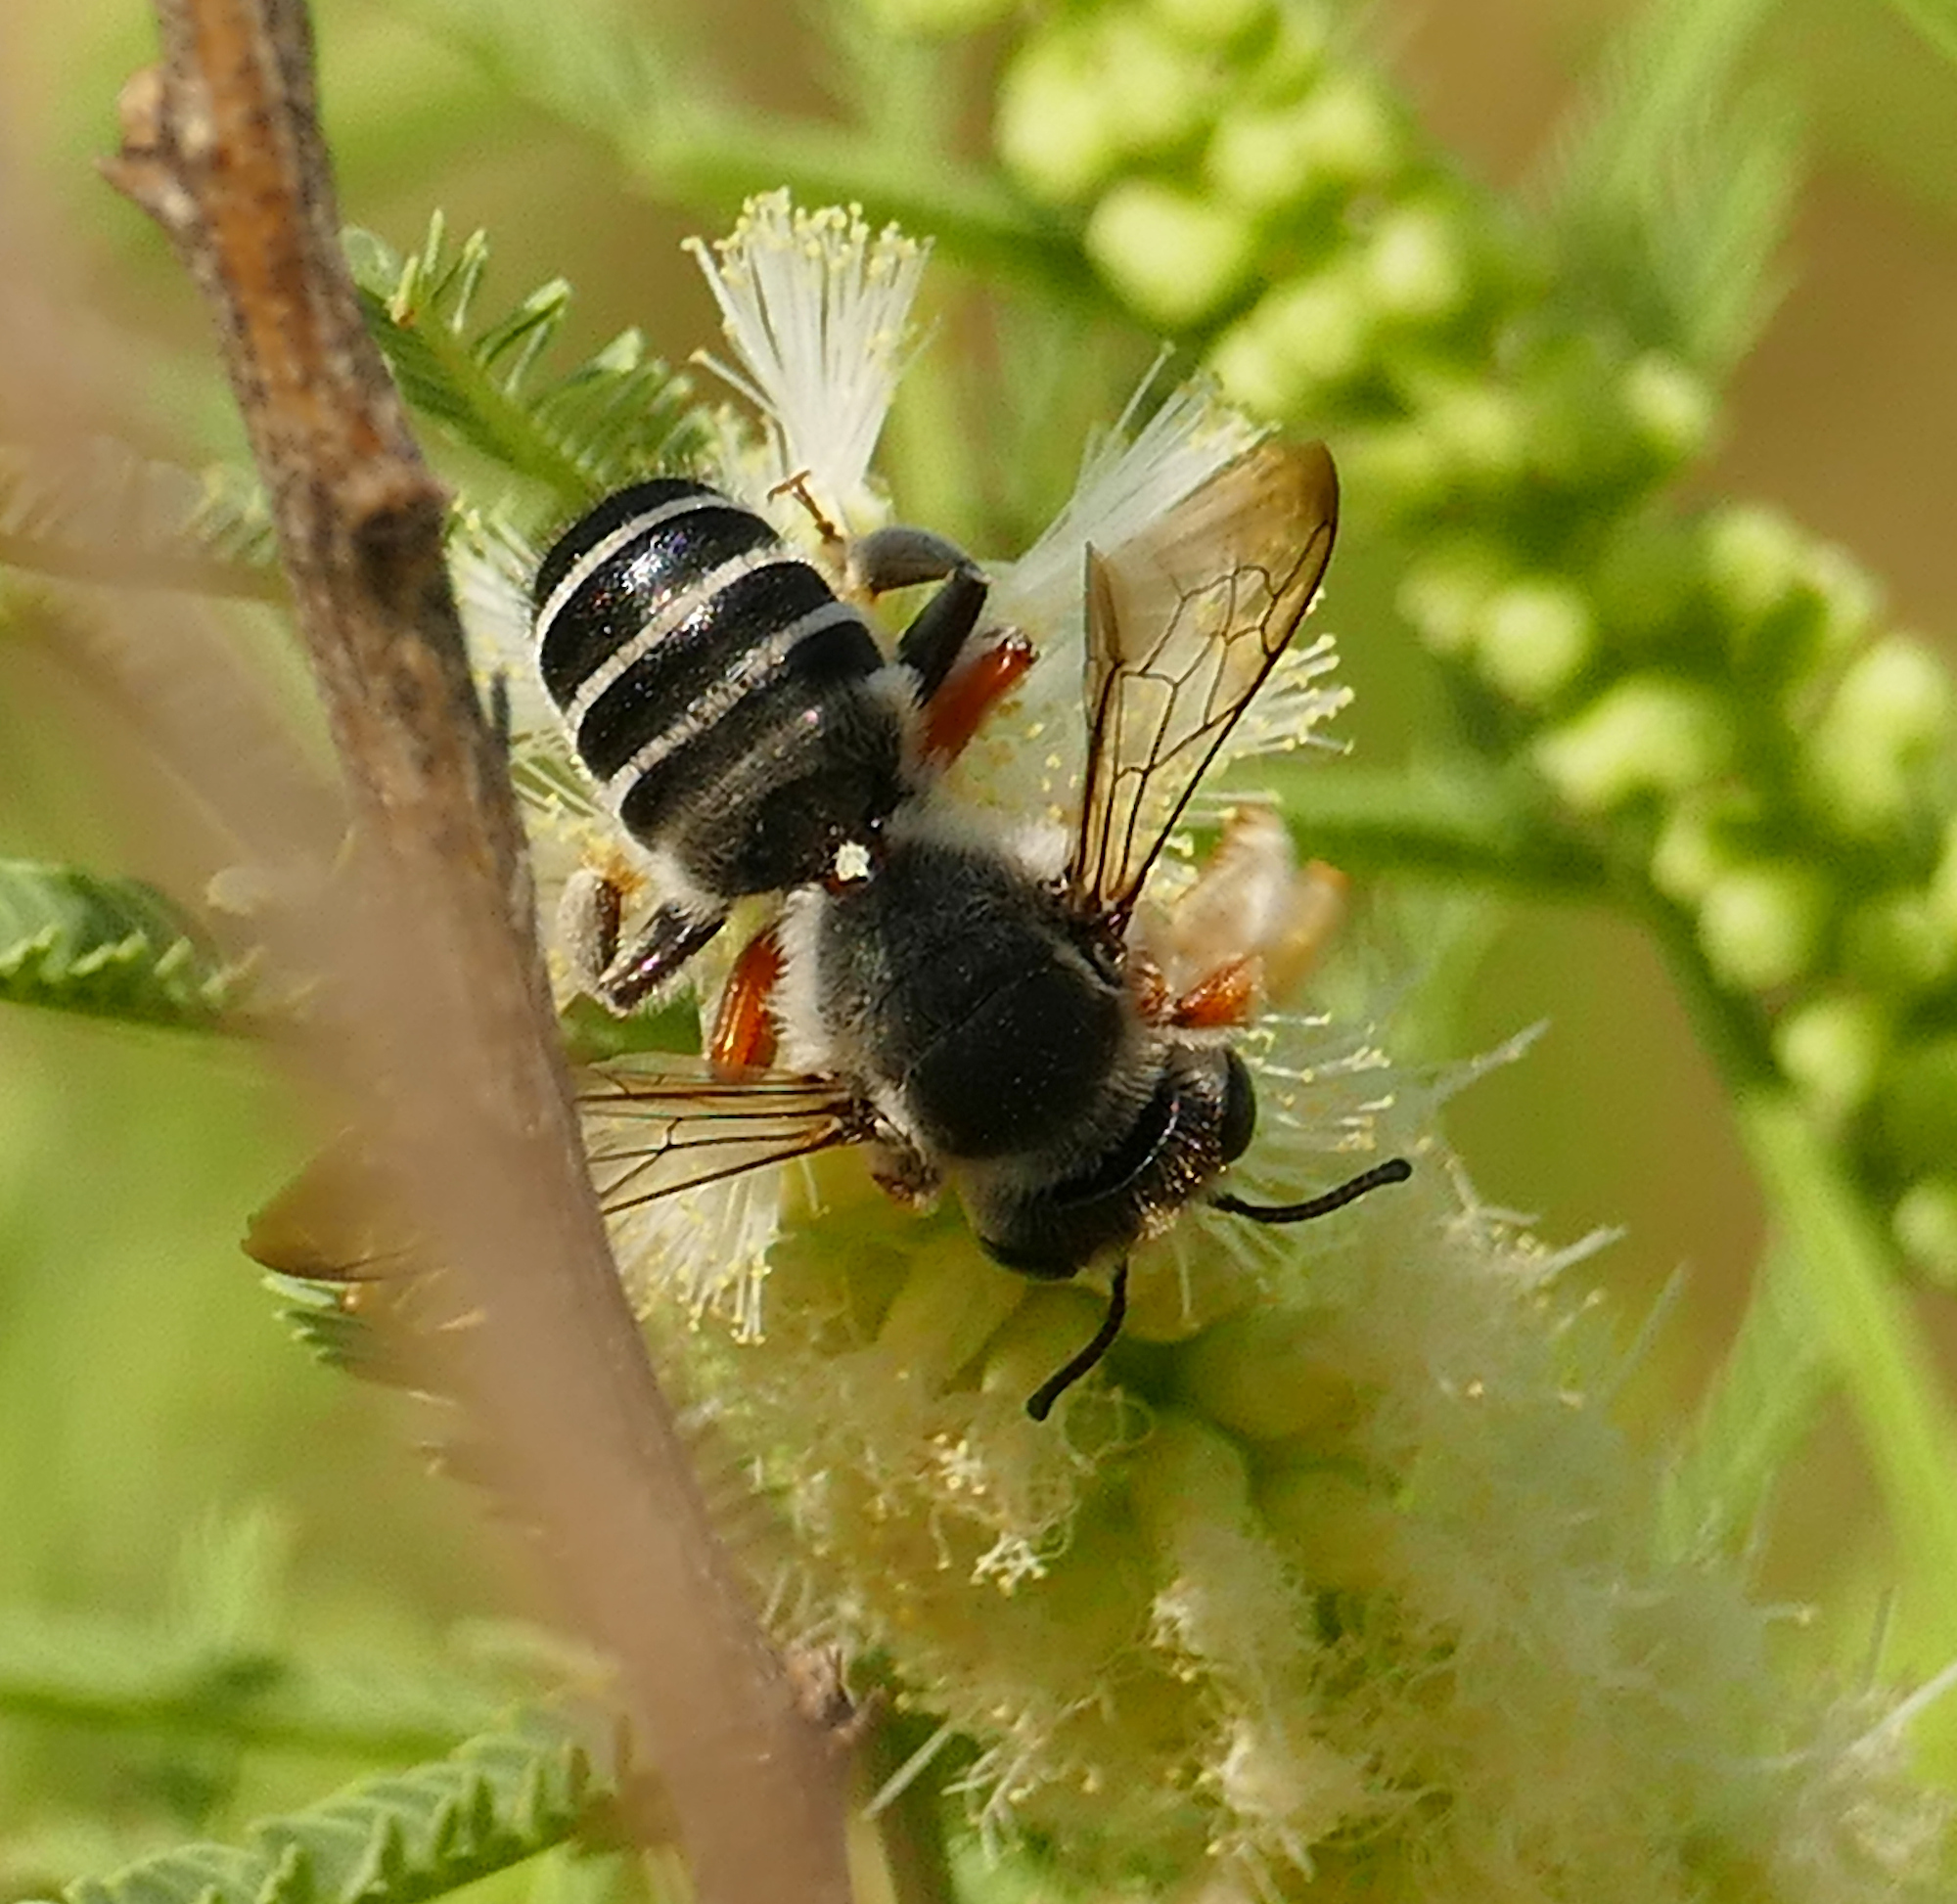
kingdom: Animalia
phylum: Arthropoda
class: Insecta
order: Hymenoptera
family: Megachilidae
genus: Megachile
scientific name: Megachile policaris
